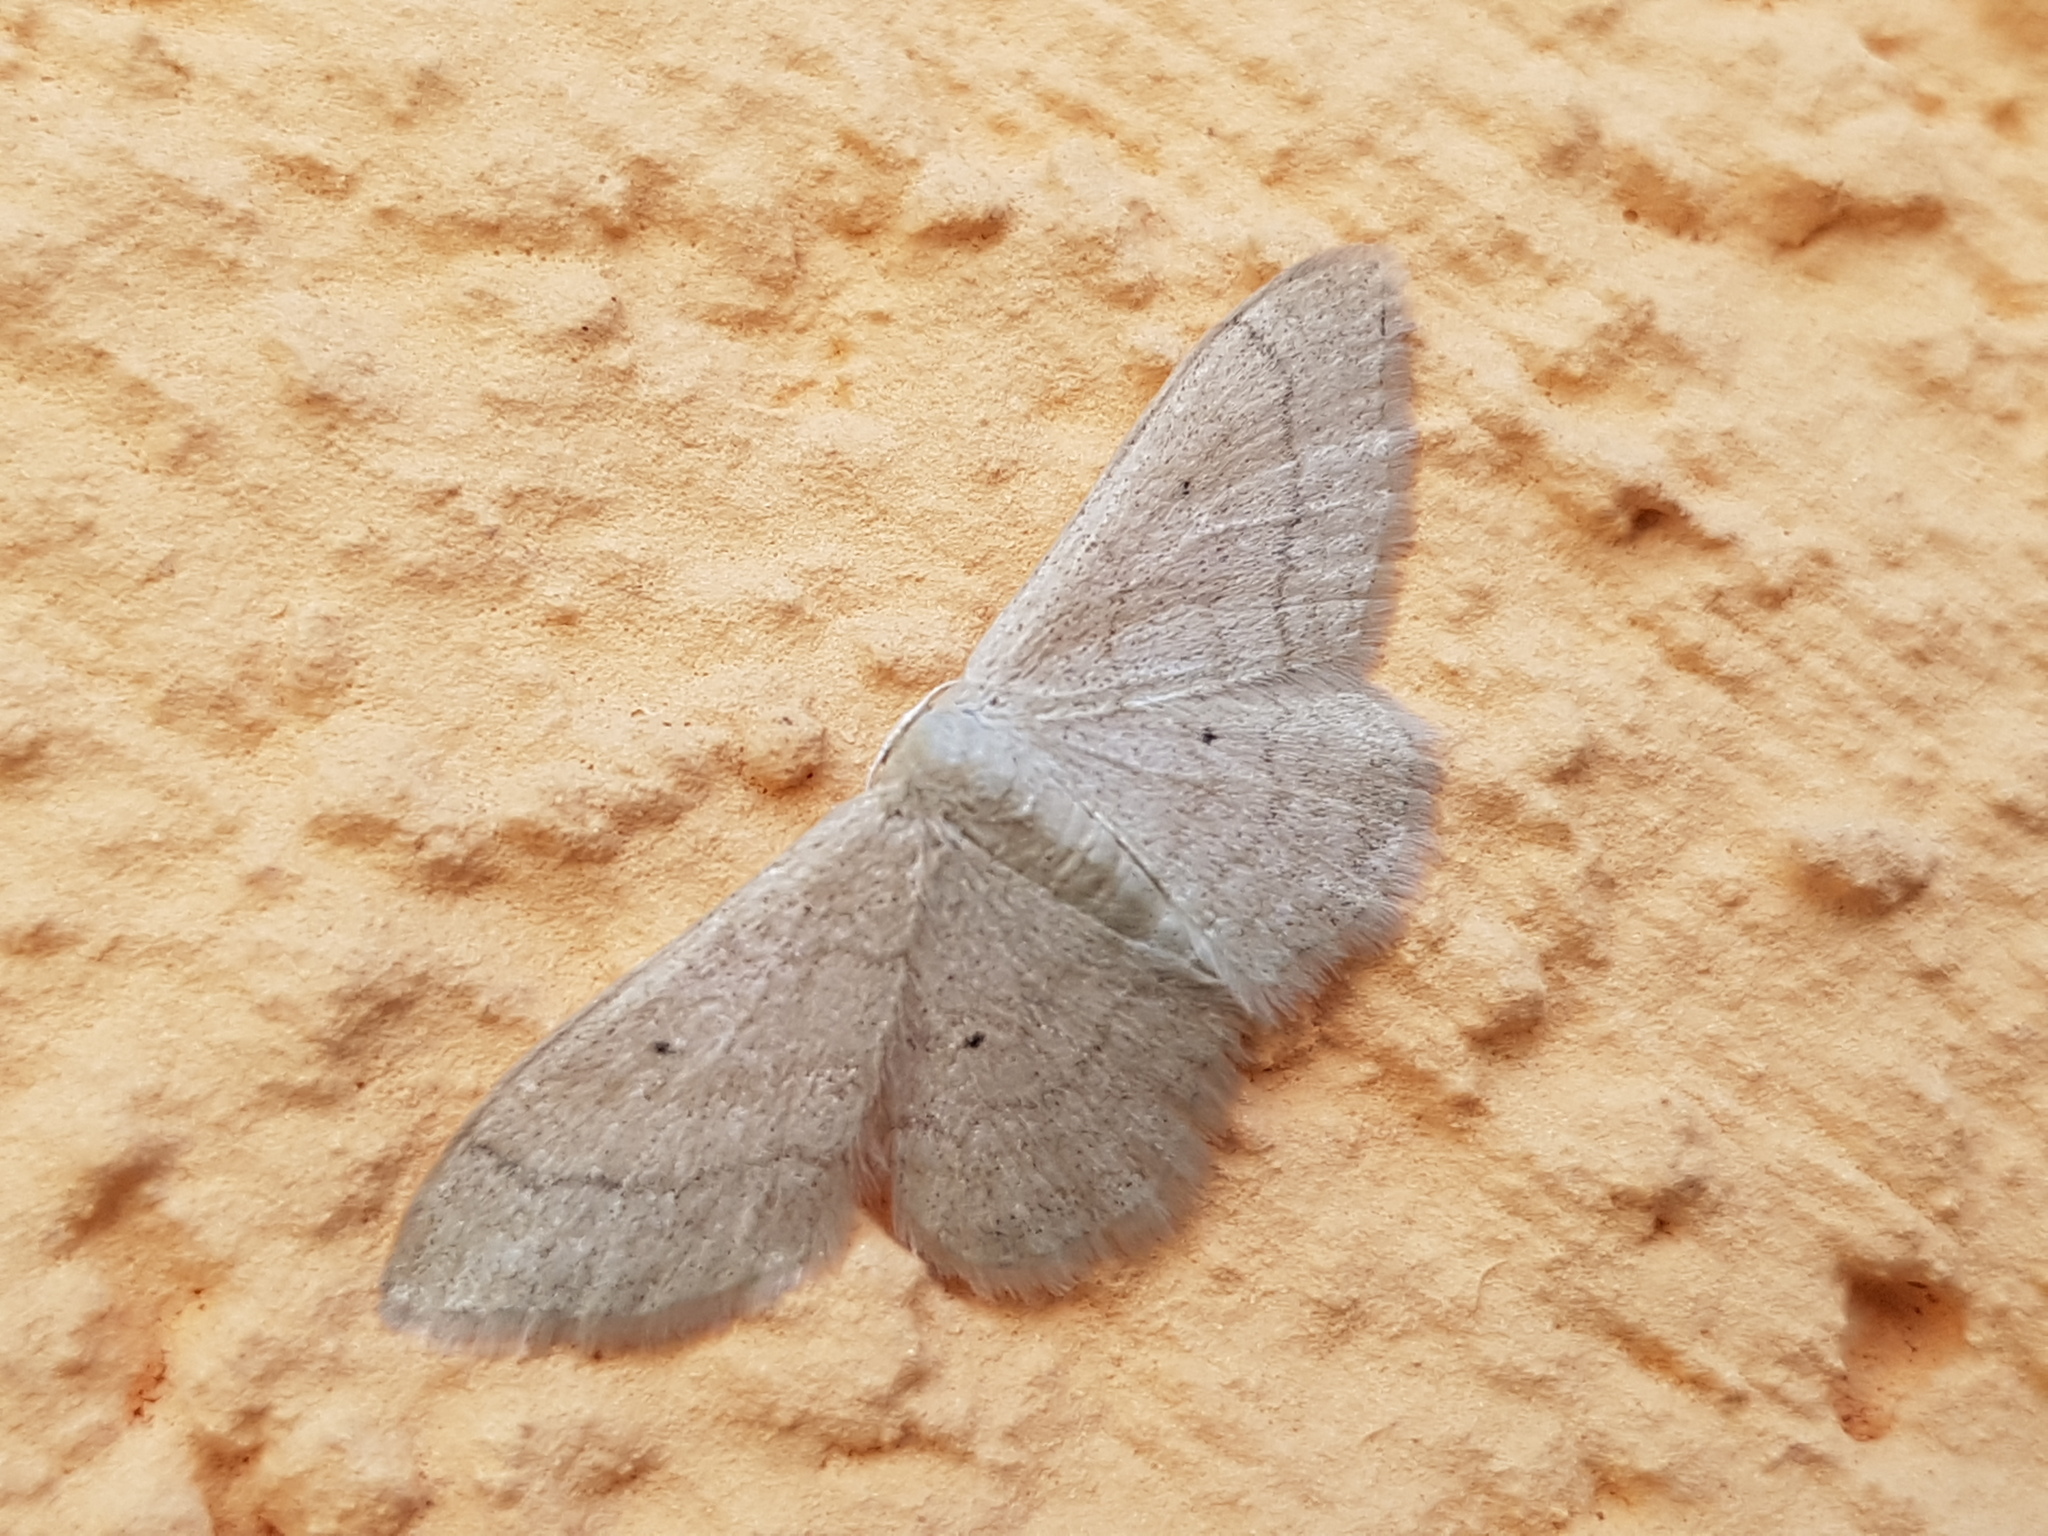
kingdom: Animalia
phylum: Arthropoda
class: Insecta
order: Lepidoptera
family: Geometridae
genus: Idaea
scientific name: Idaea straminata
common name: Plain wave
